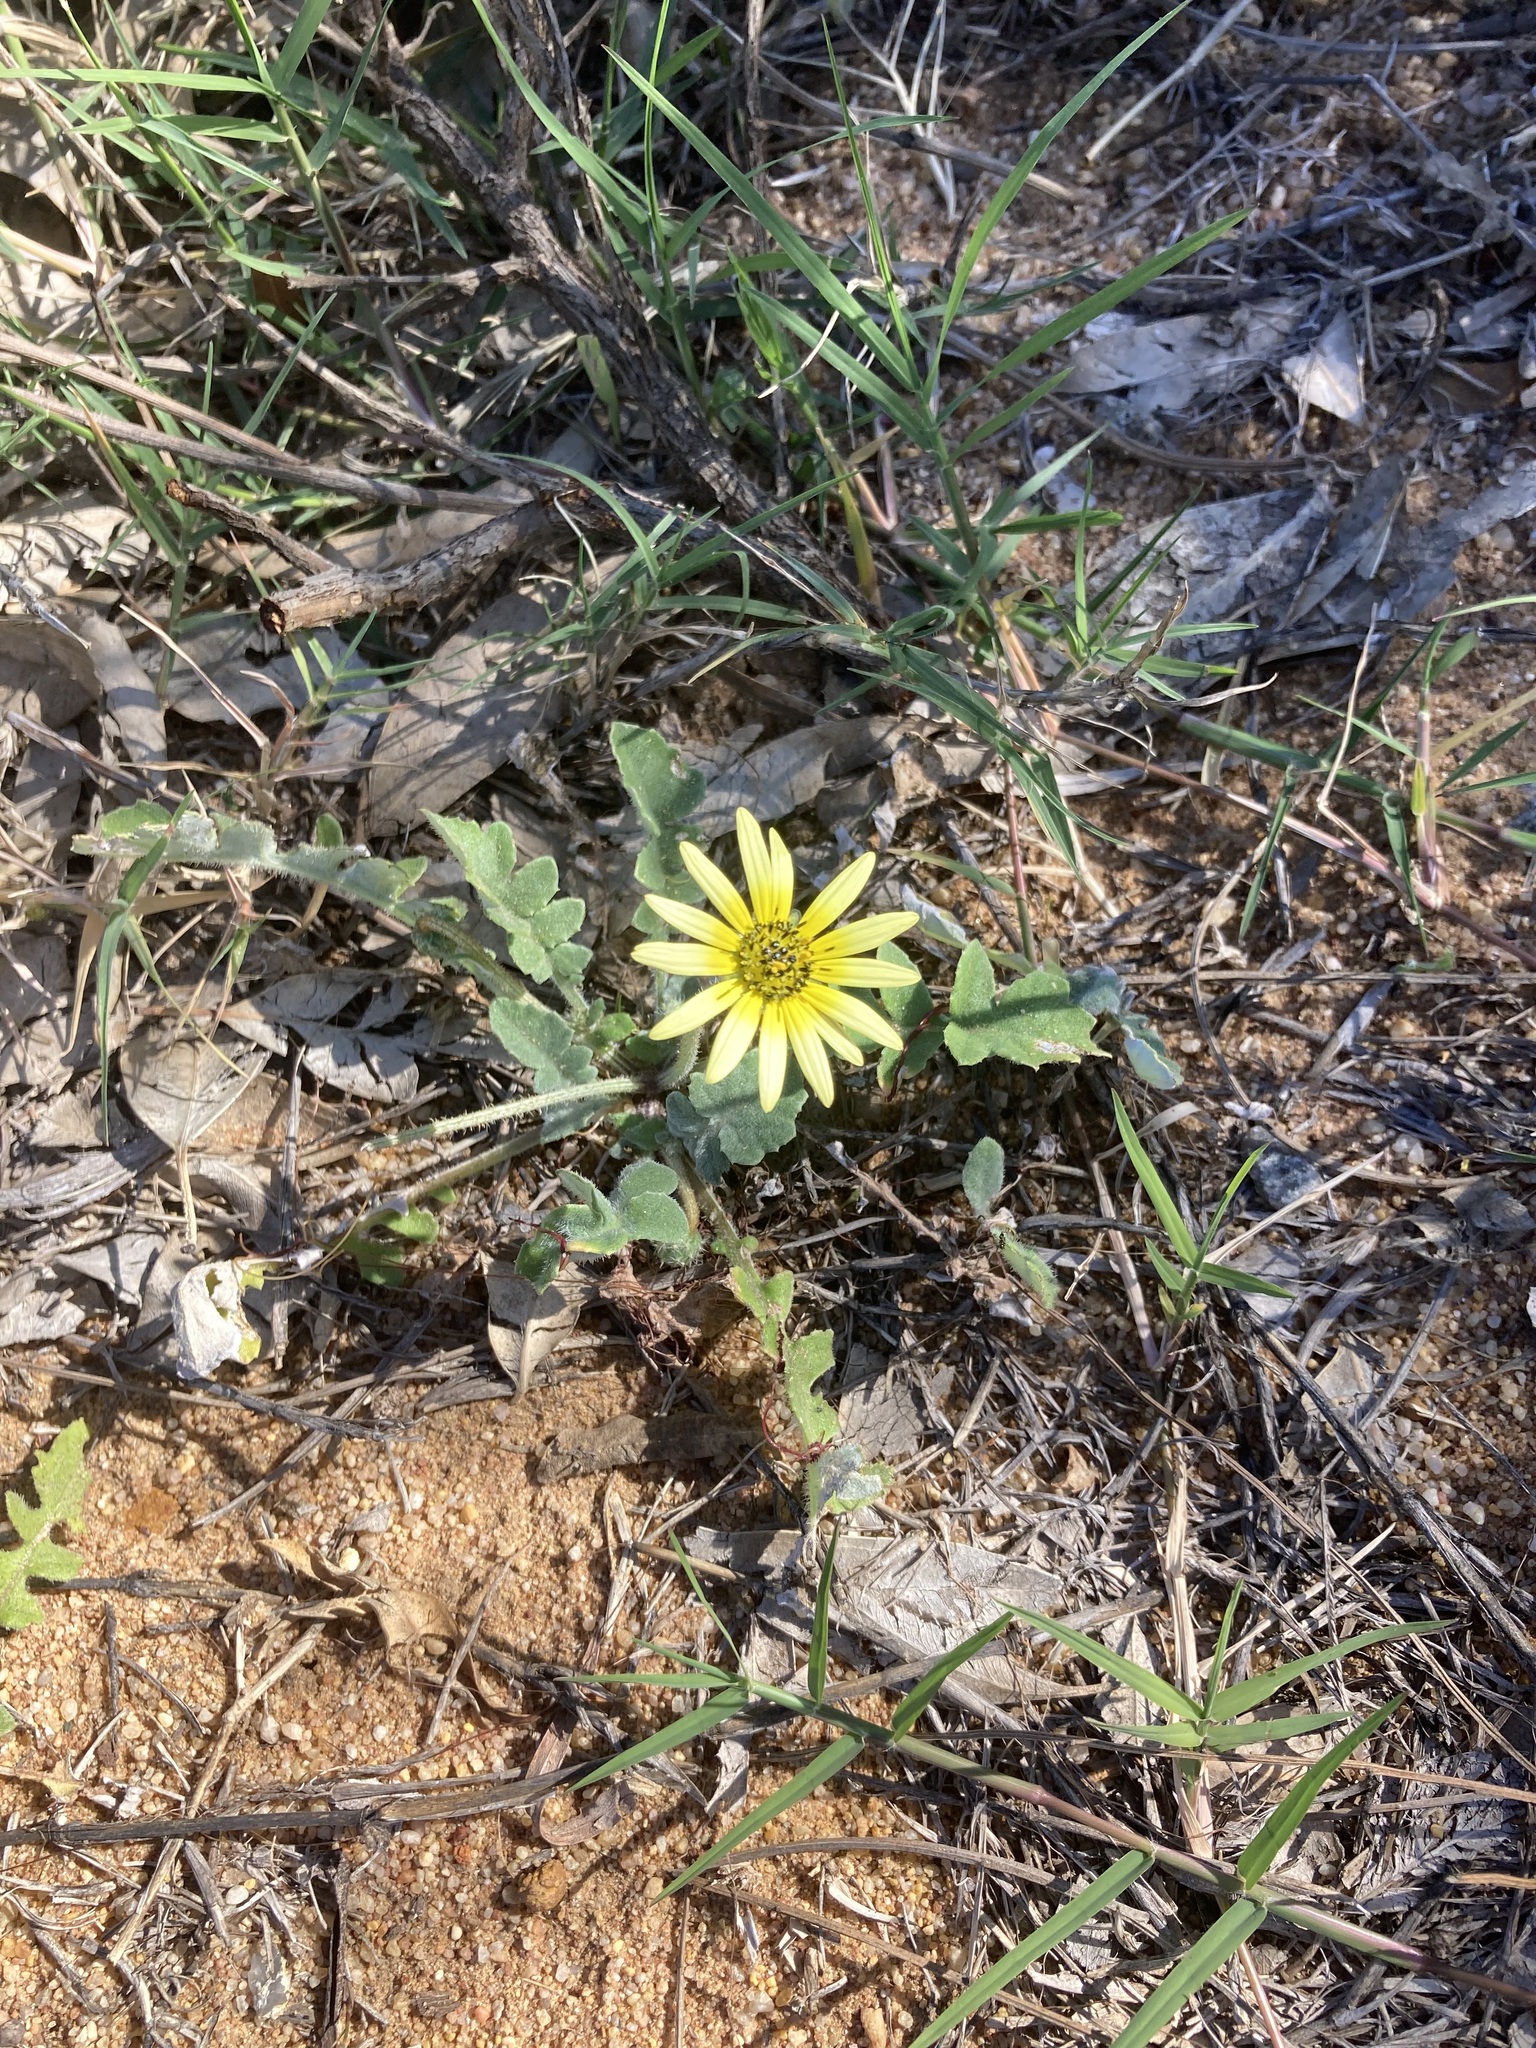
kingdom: Plantae
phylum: Tracheophyta
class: Magnoliopsida
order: Asterales
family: Asteraceae
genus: Arctotheca
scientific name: Arctotheca calendula
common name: Capeweed
